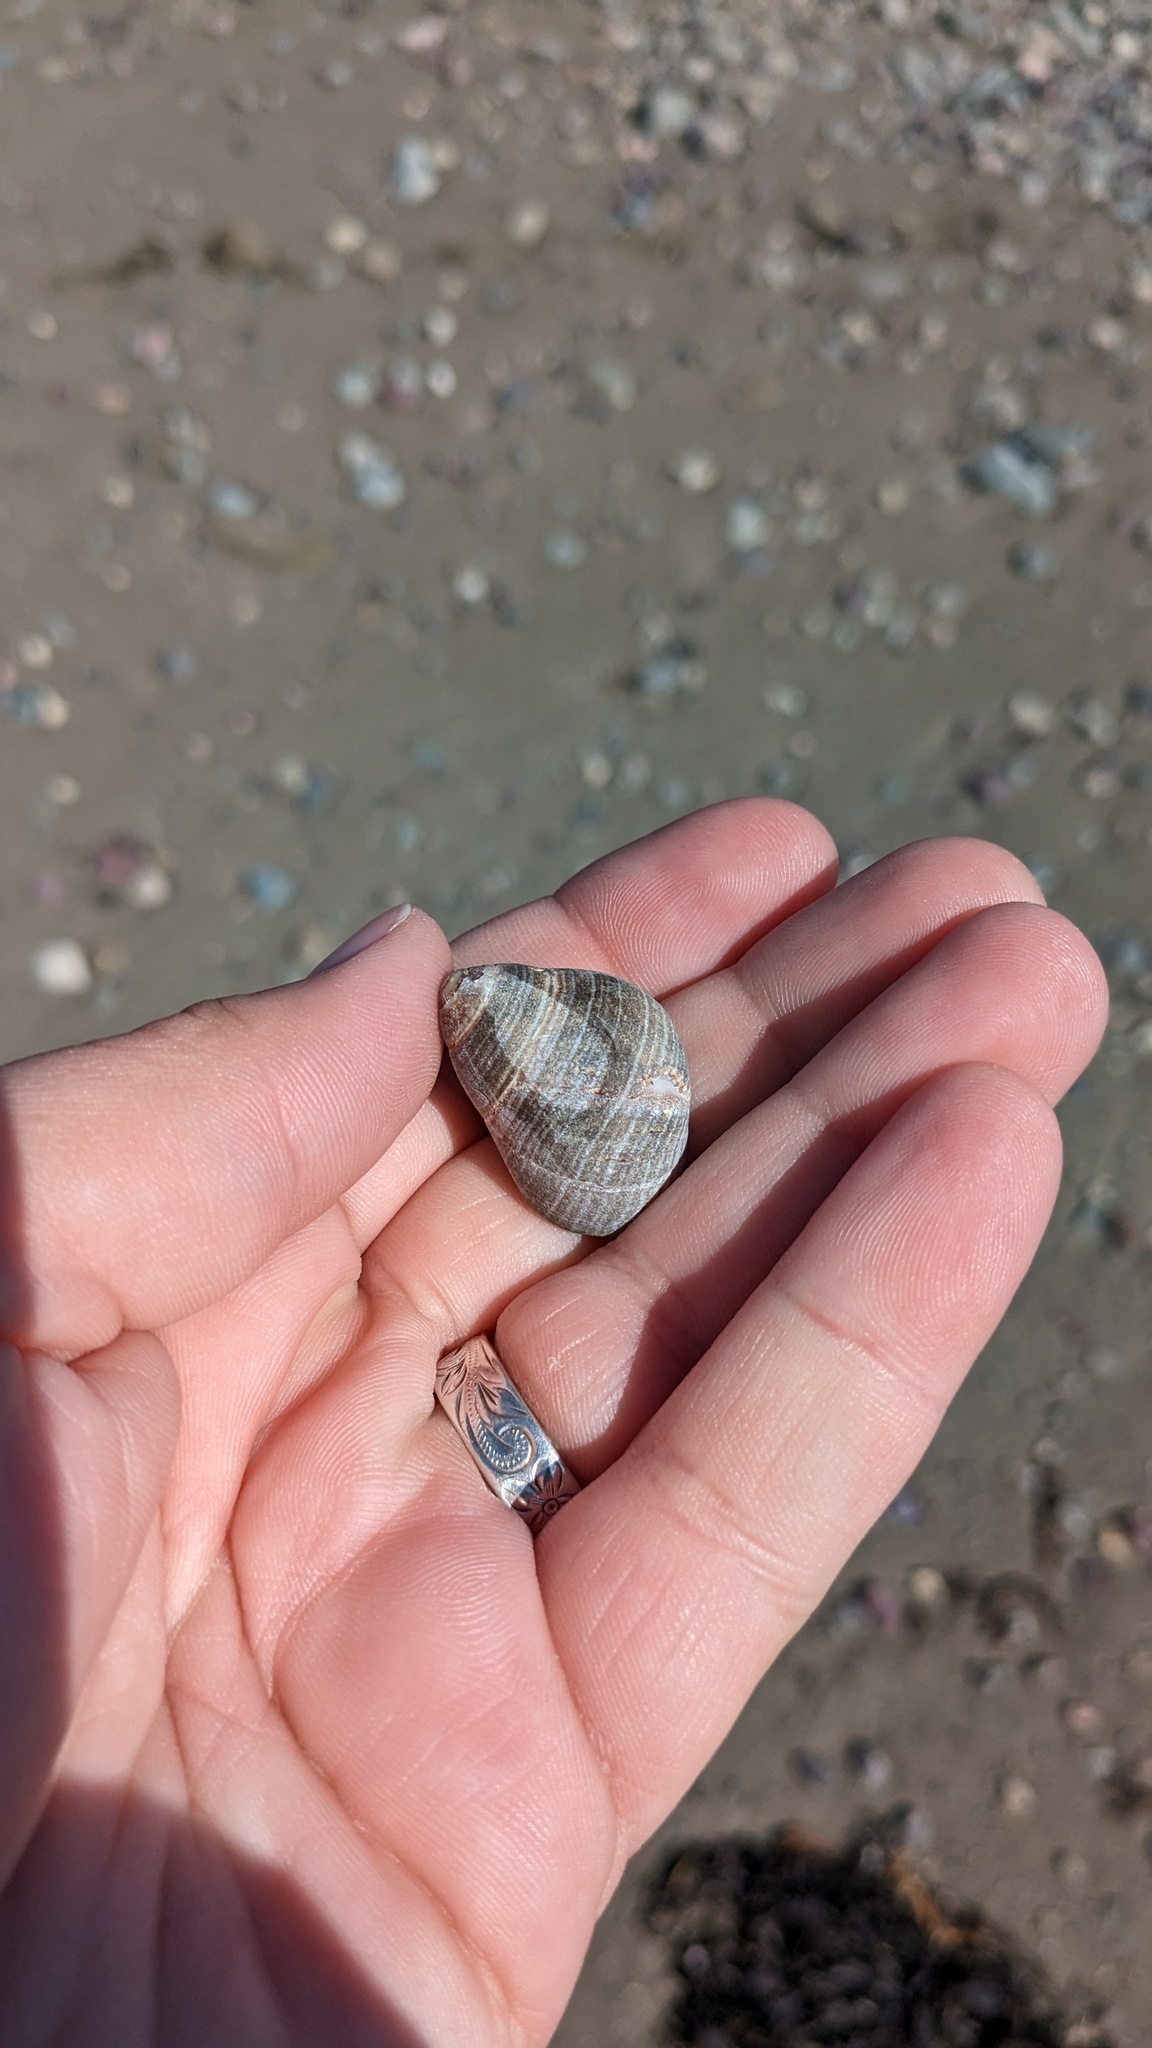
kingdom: Animalia
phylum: Mollusca
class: Gastropoda
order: Littorinimorpha
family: Littorinidae
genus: Littorina
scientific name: Littorina littorea
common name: Common periwinkle
